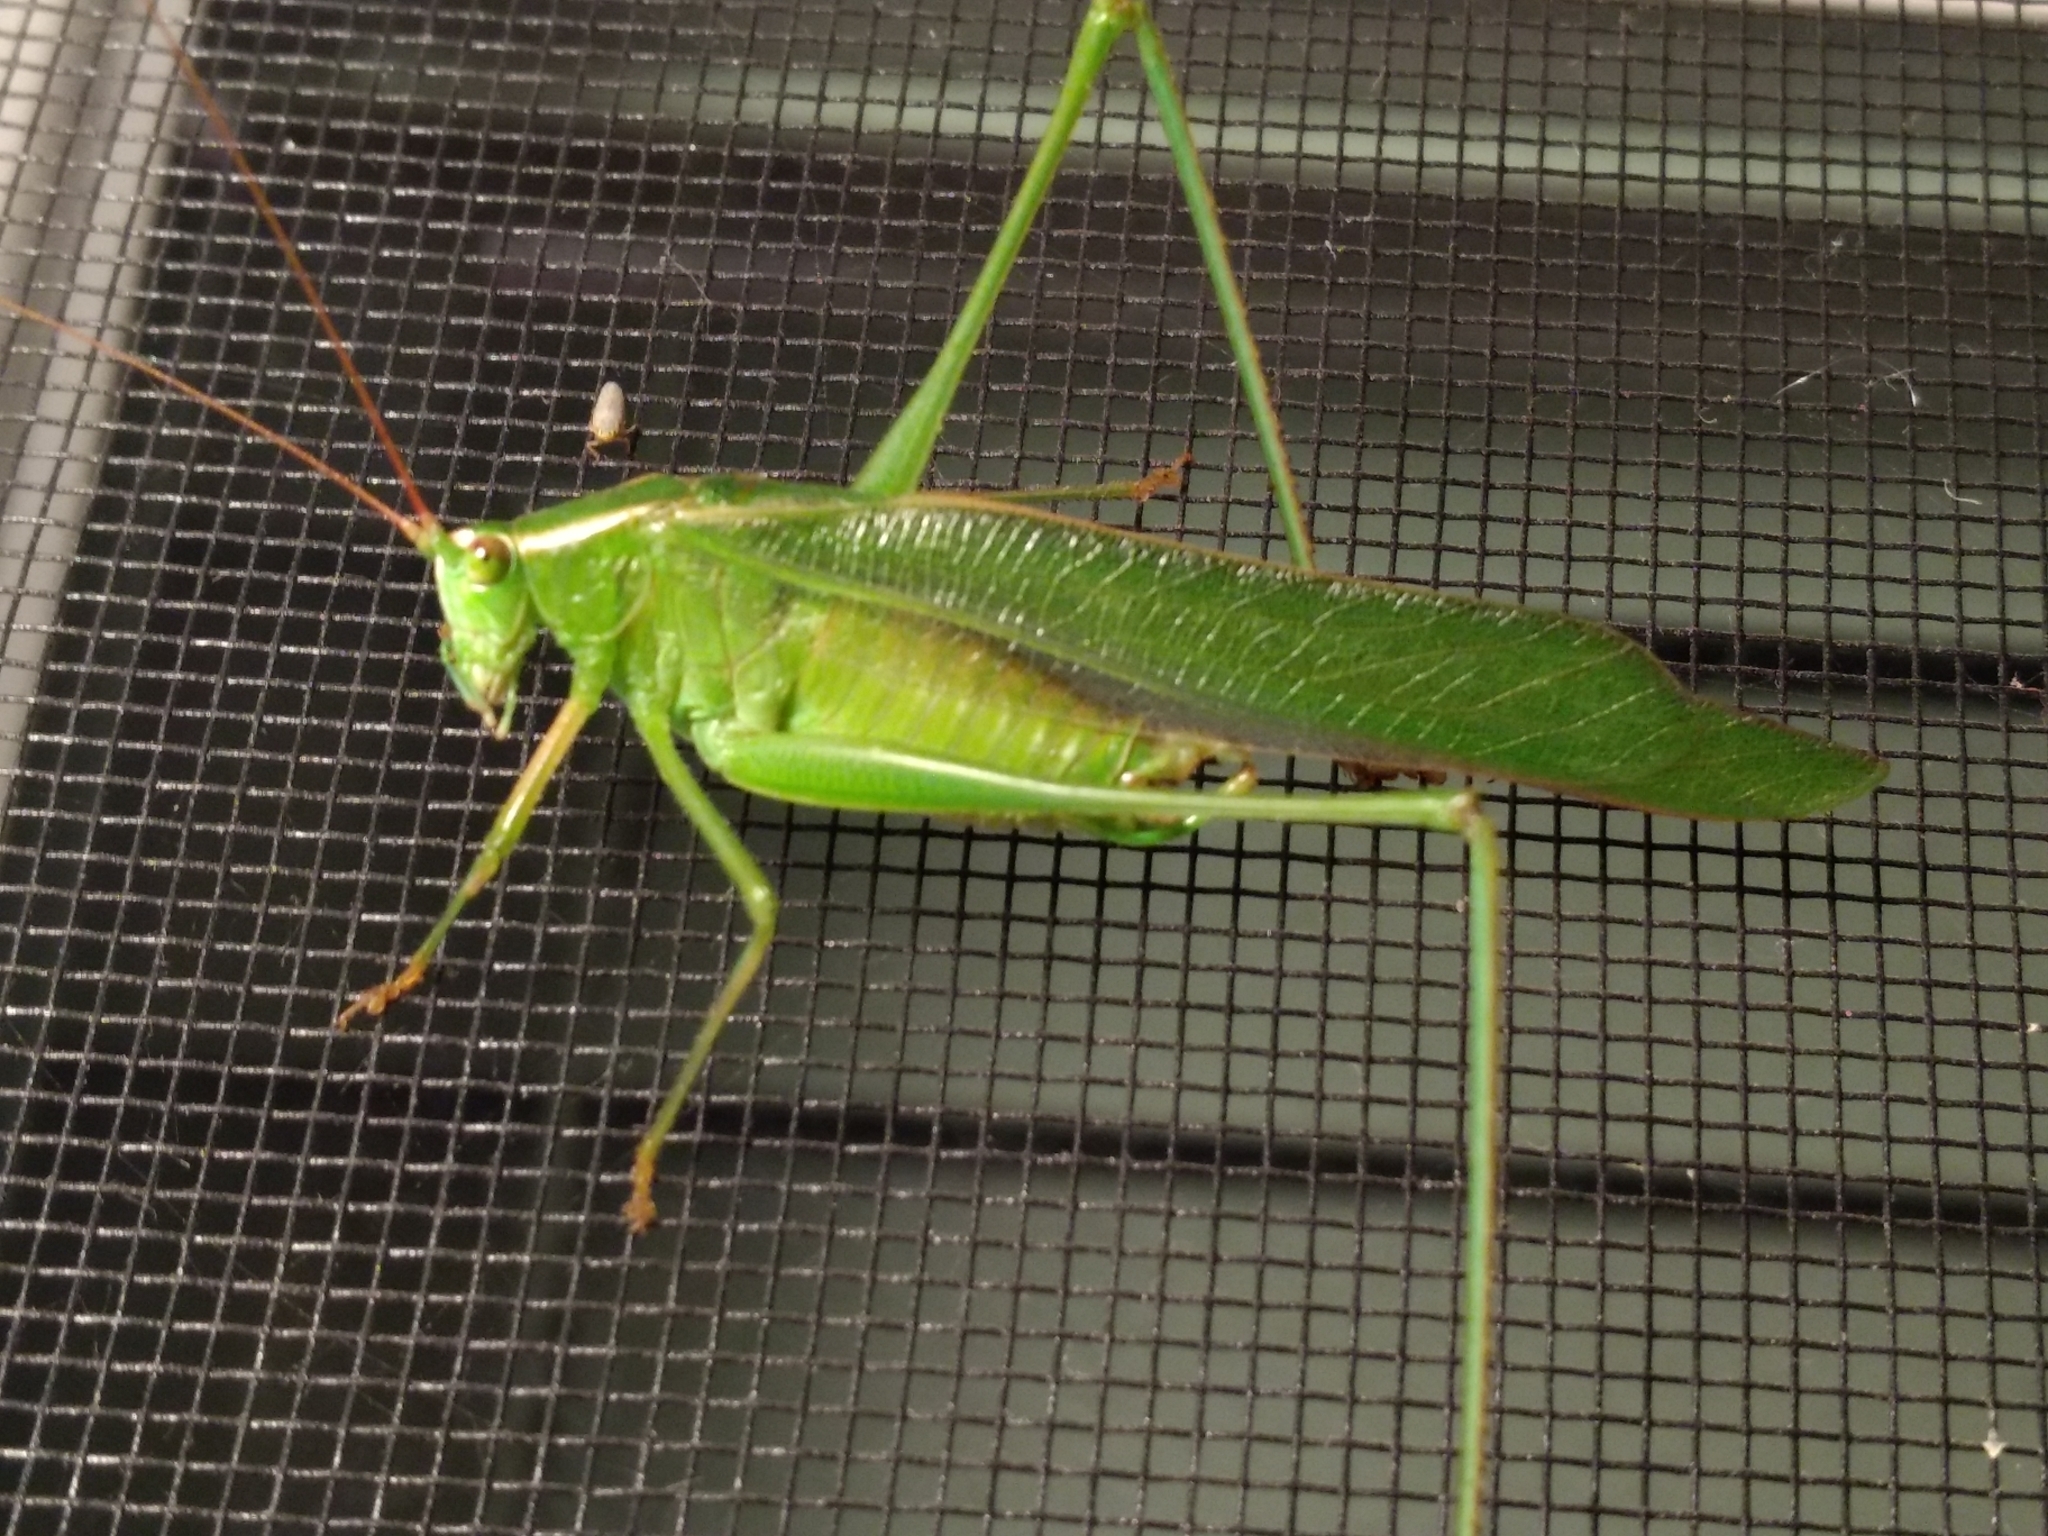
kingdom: Animalia
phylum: Arthropoda
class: Insecta
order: Orthoptera
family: Tettigoniidae
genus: Scudderia
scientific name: Scudderia mexicana
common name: Mexican bush katydid
